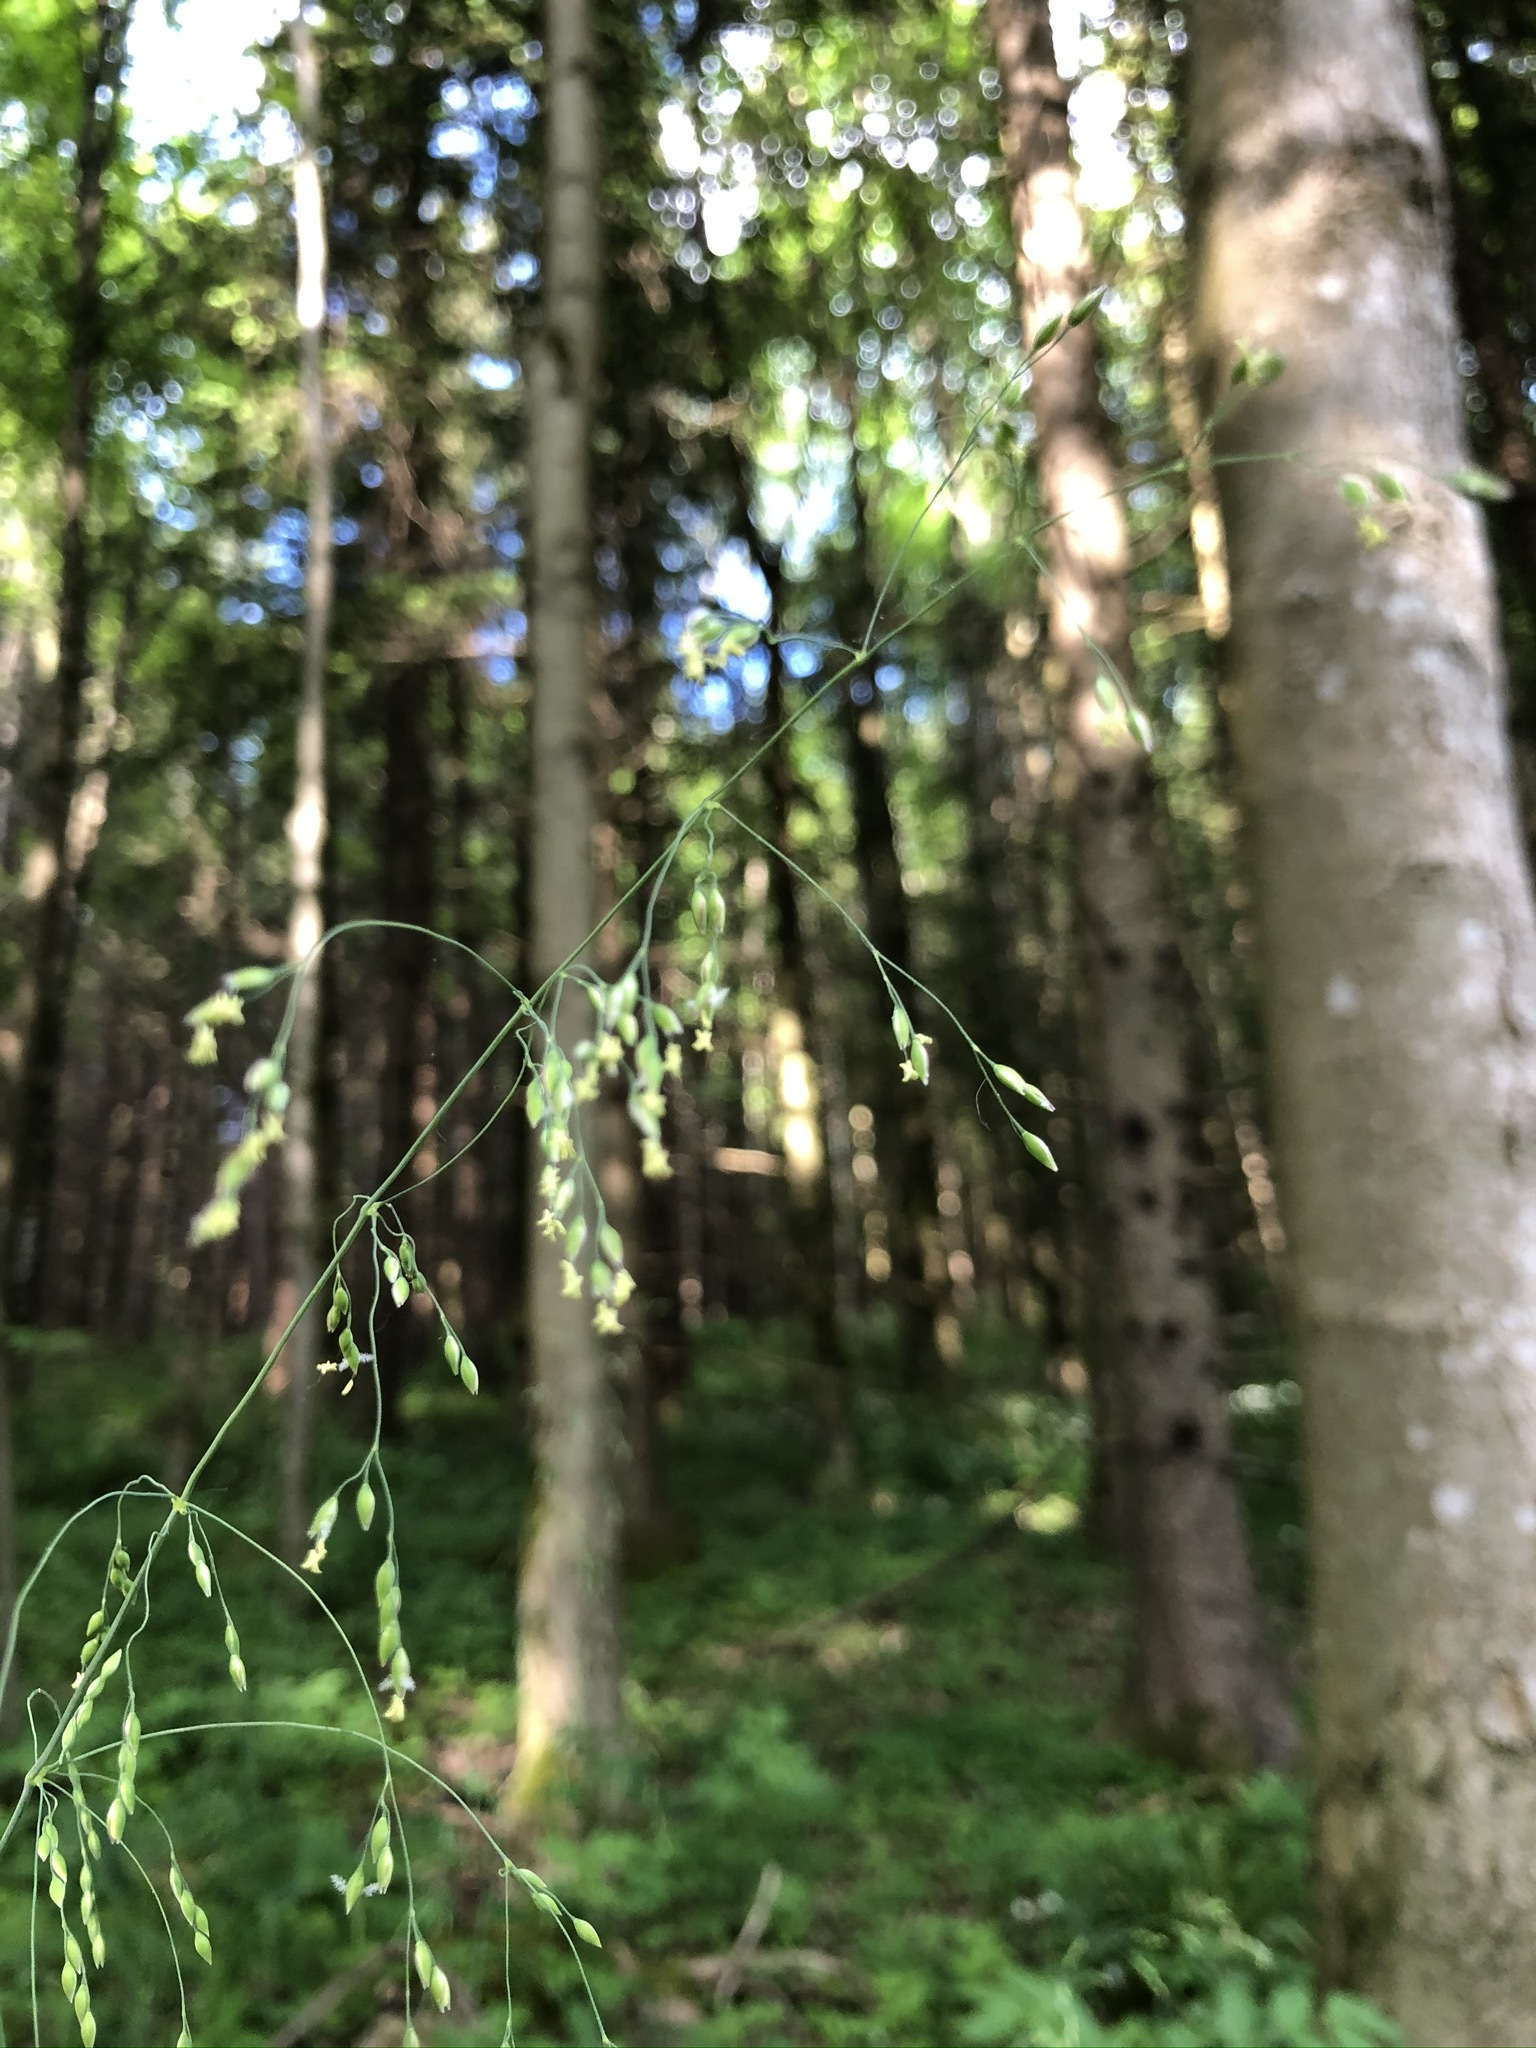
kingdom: Plantae
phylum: Tracheophyta
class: Liliopsida
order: Poales
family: Poaceae
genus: Milium
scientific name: Milium effusum
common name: Wood millet
